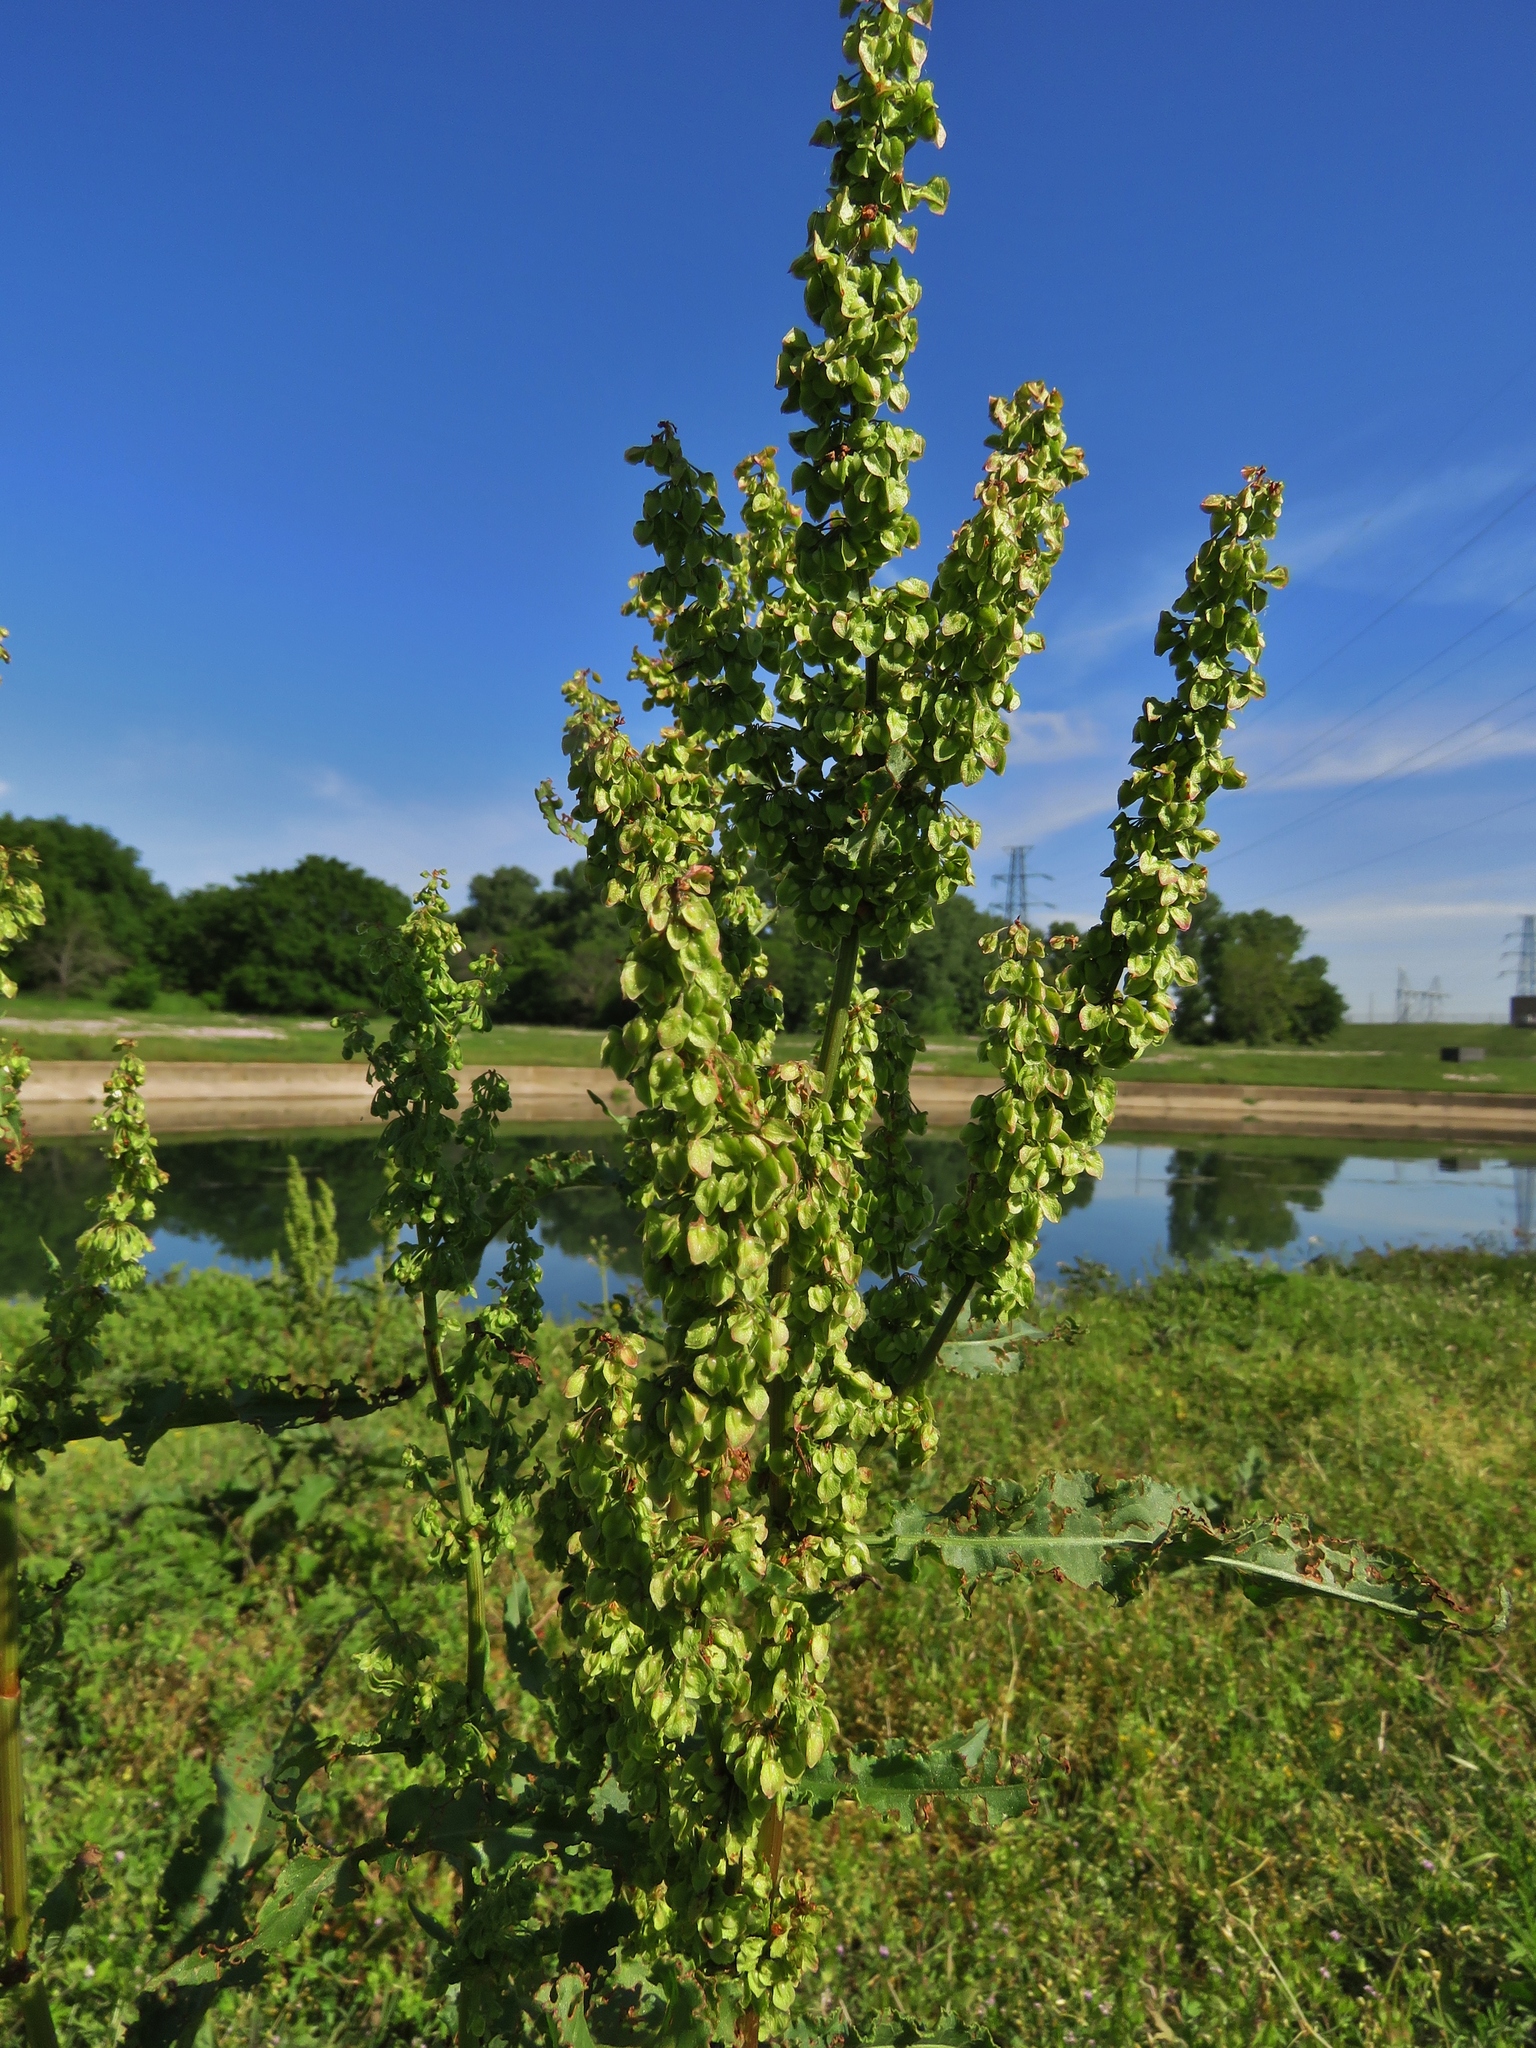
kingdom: Plantae
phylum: Tracheophyta
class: Magnoliopsida
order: Caryophyllales
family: Polygonaceae
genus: Rumex
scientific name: Rumex crispus
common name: Curled dock
